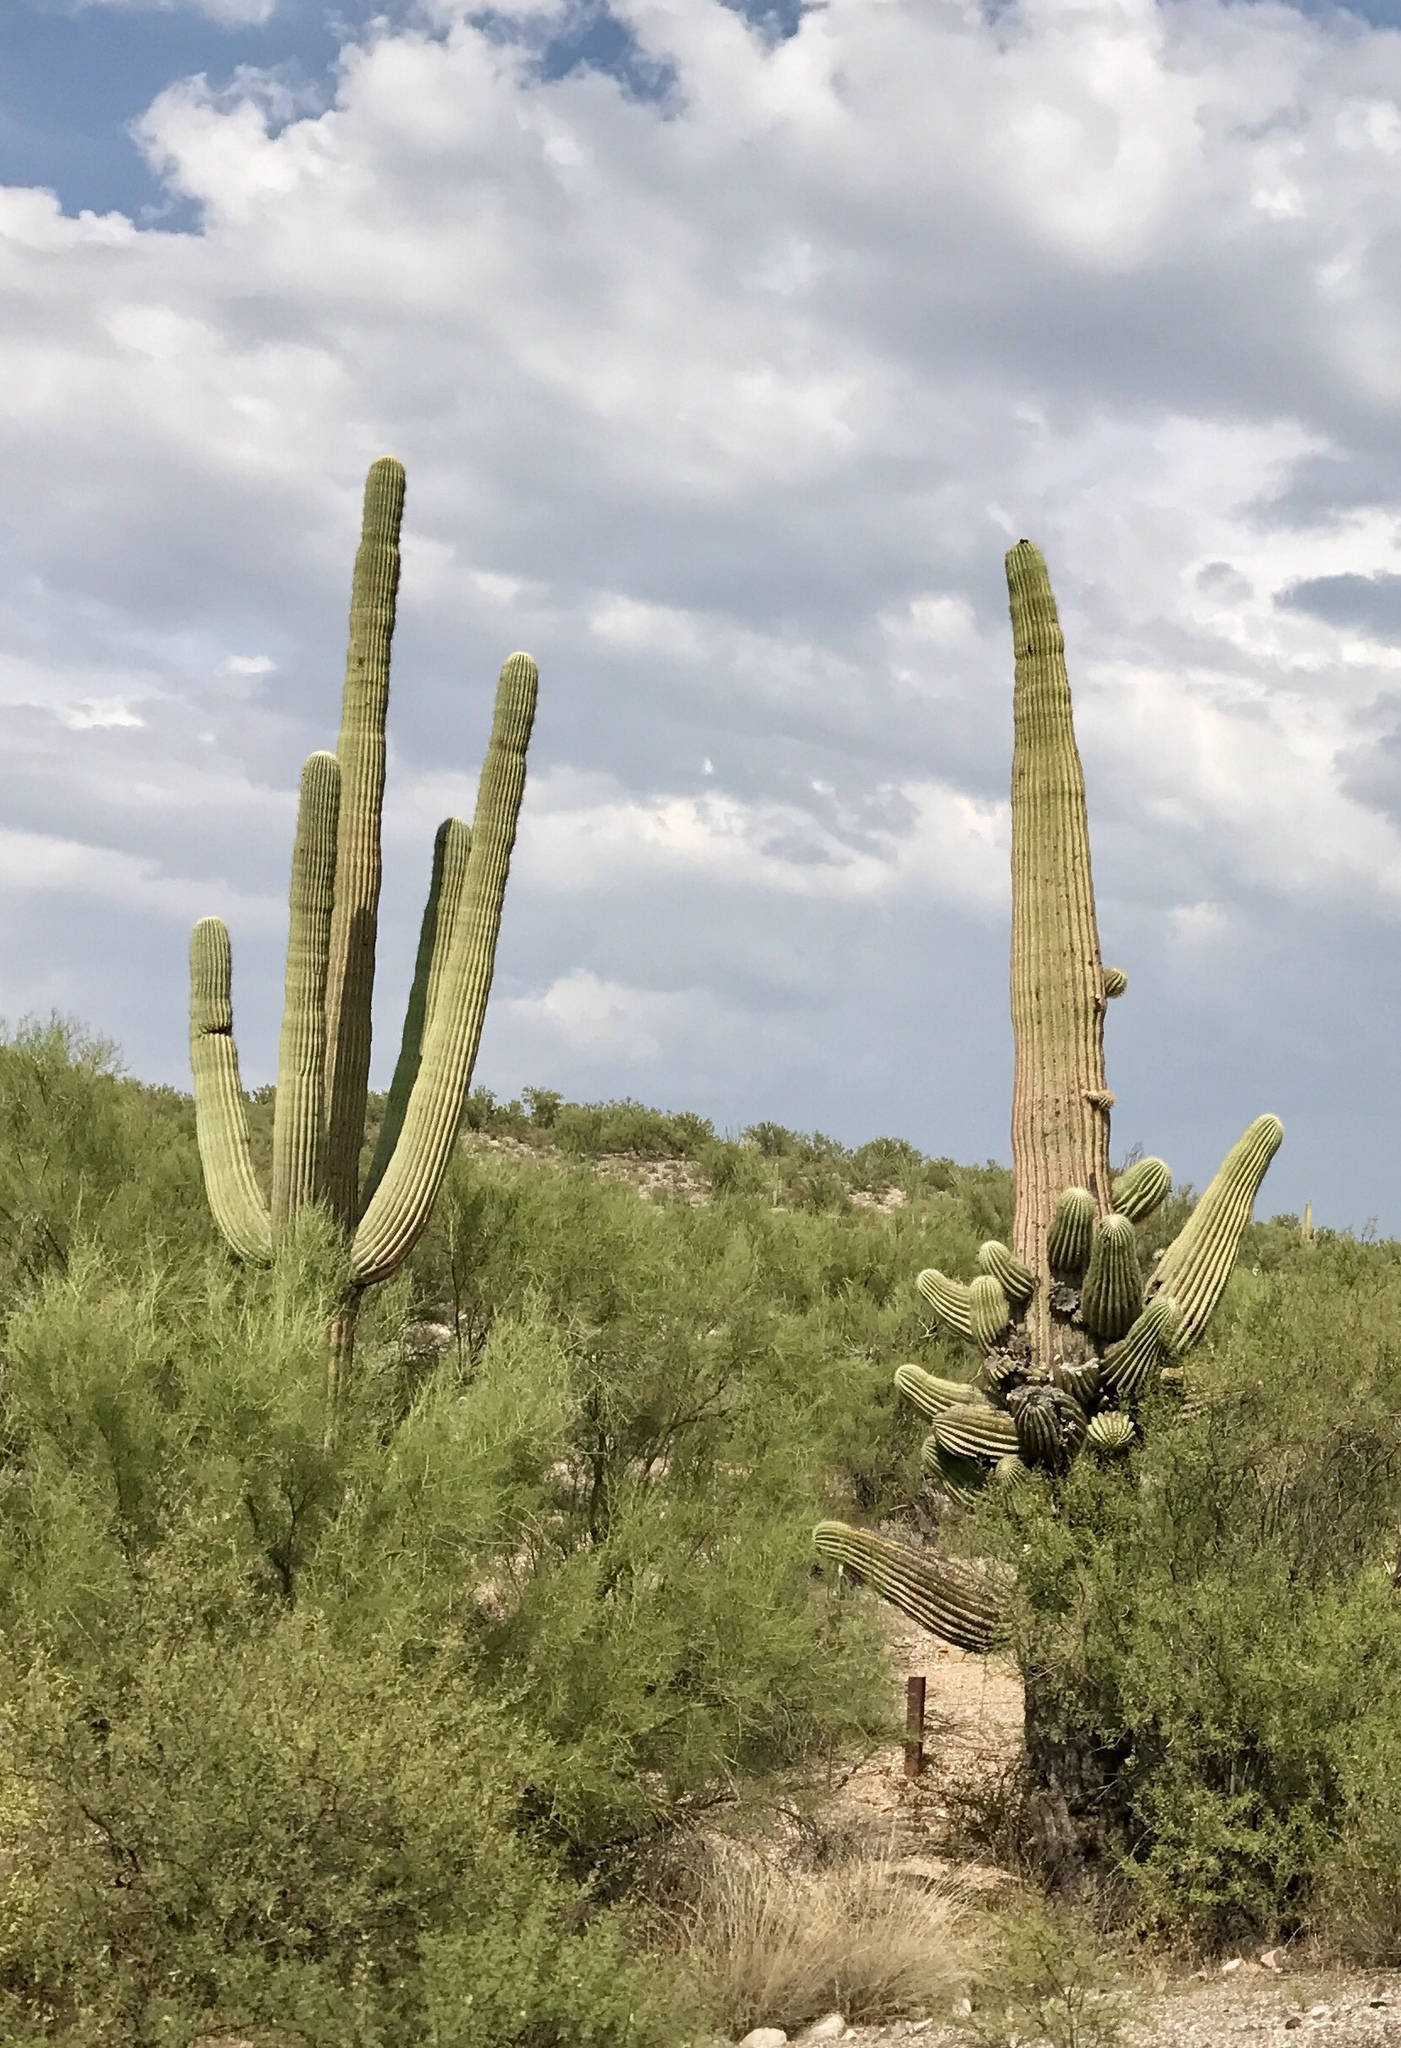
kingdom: Plantae
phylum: Tracheophyta
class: Magnoliopsida
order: Caryophyllales
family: Cactaceae
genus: Carnegiea
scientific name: Carnegiea gigantea
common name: Saguaro
